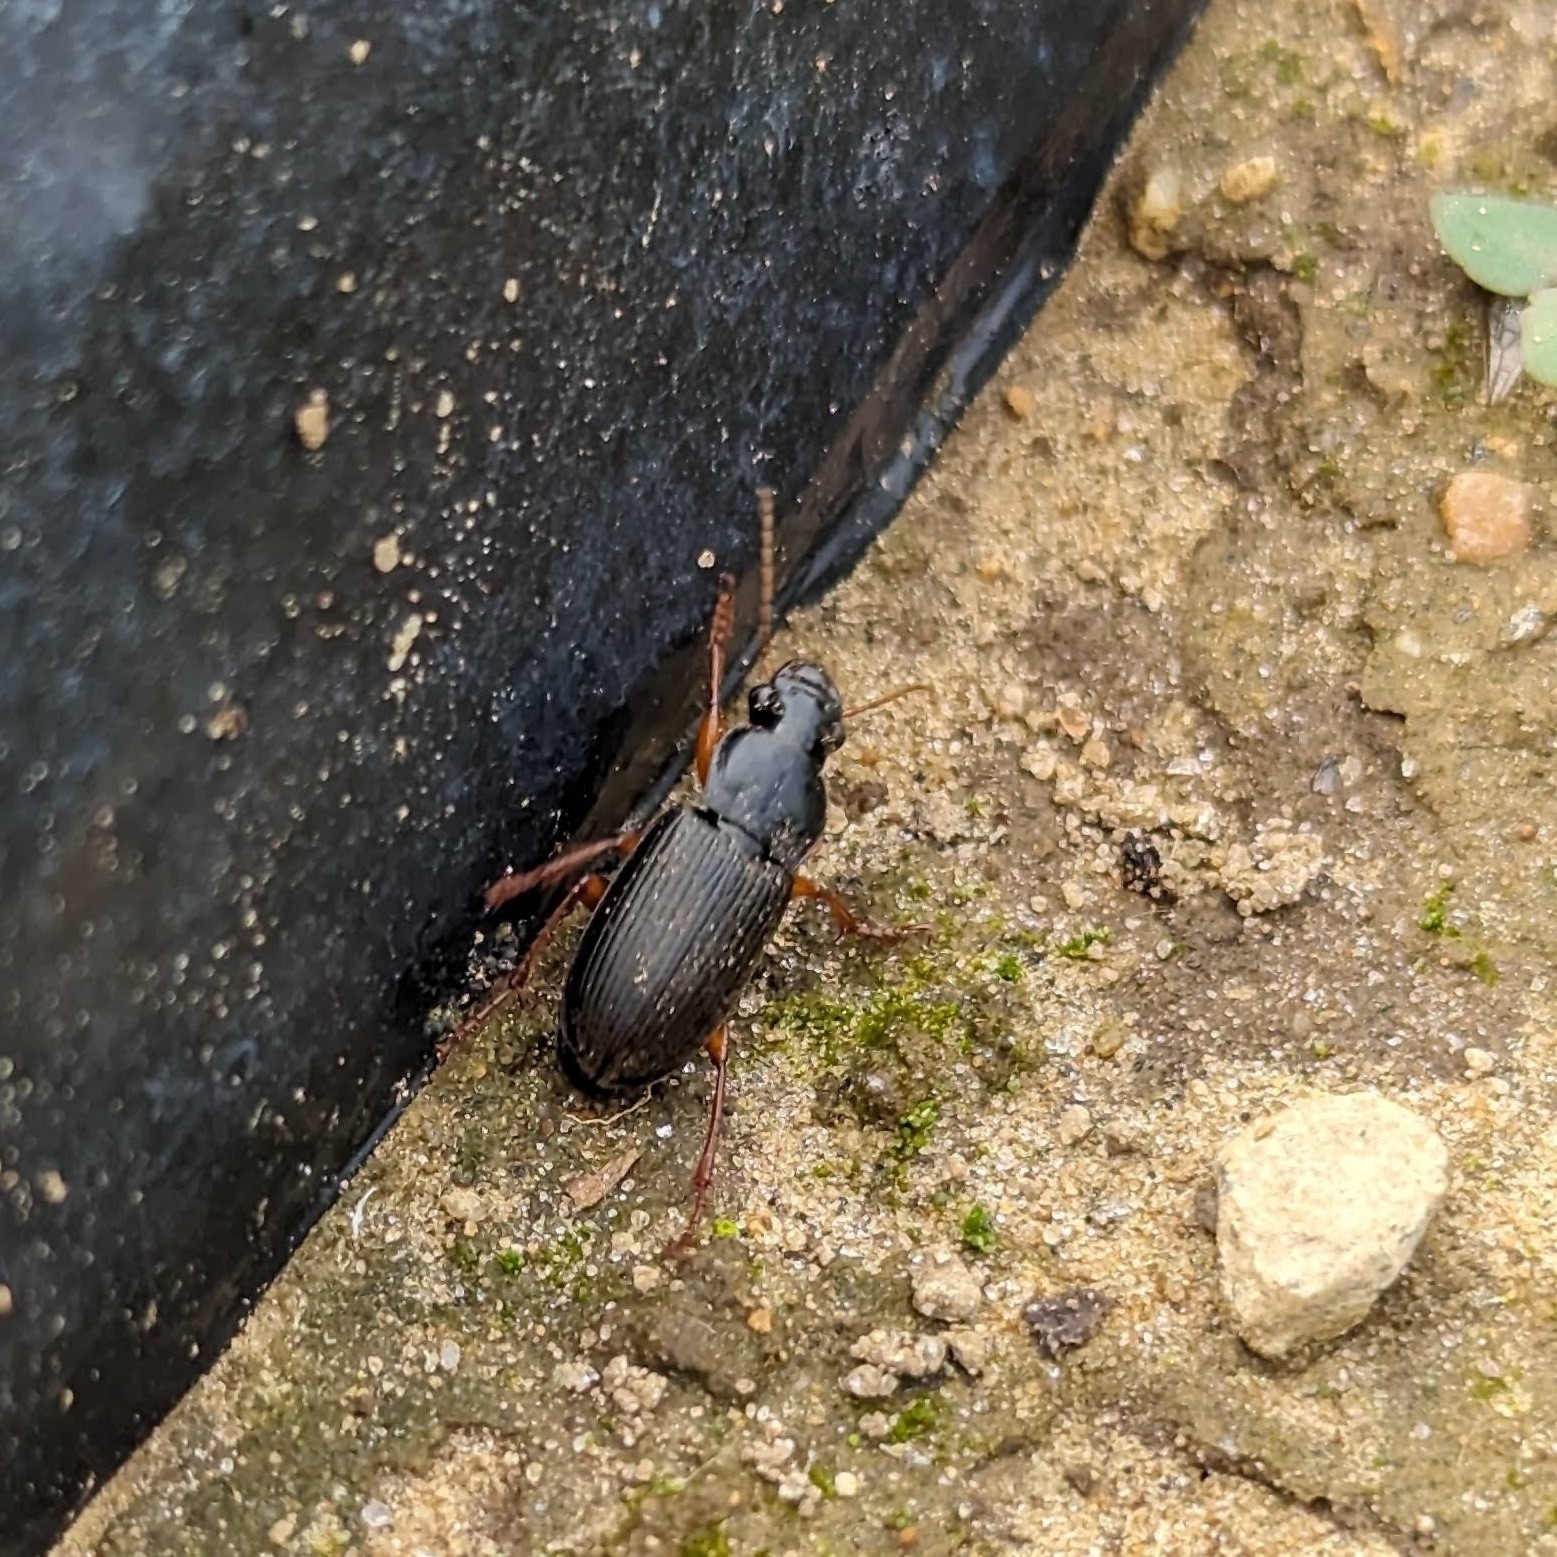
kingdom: Animalia
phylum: Arthropoda
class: Insecta
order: Coleoptera
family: Carabidae
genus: Harpalus
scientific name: Harpalus rufipes
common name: Strawberry harp ground beetle
